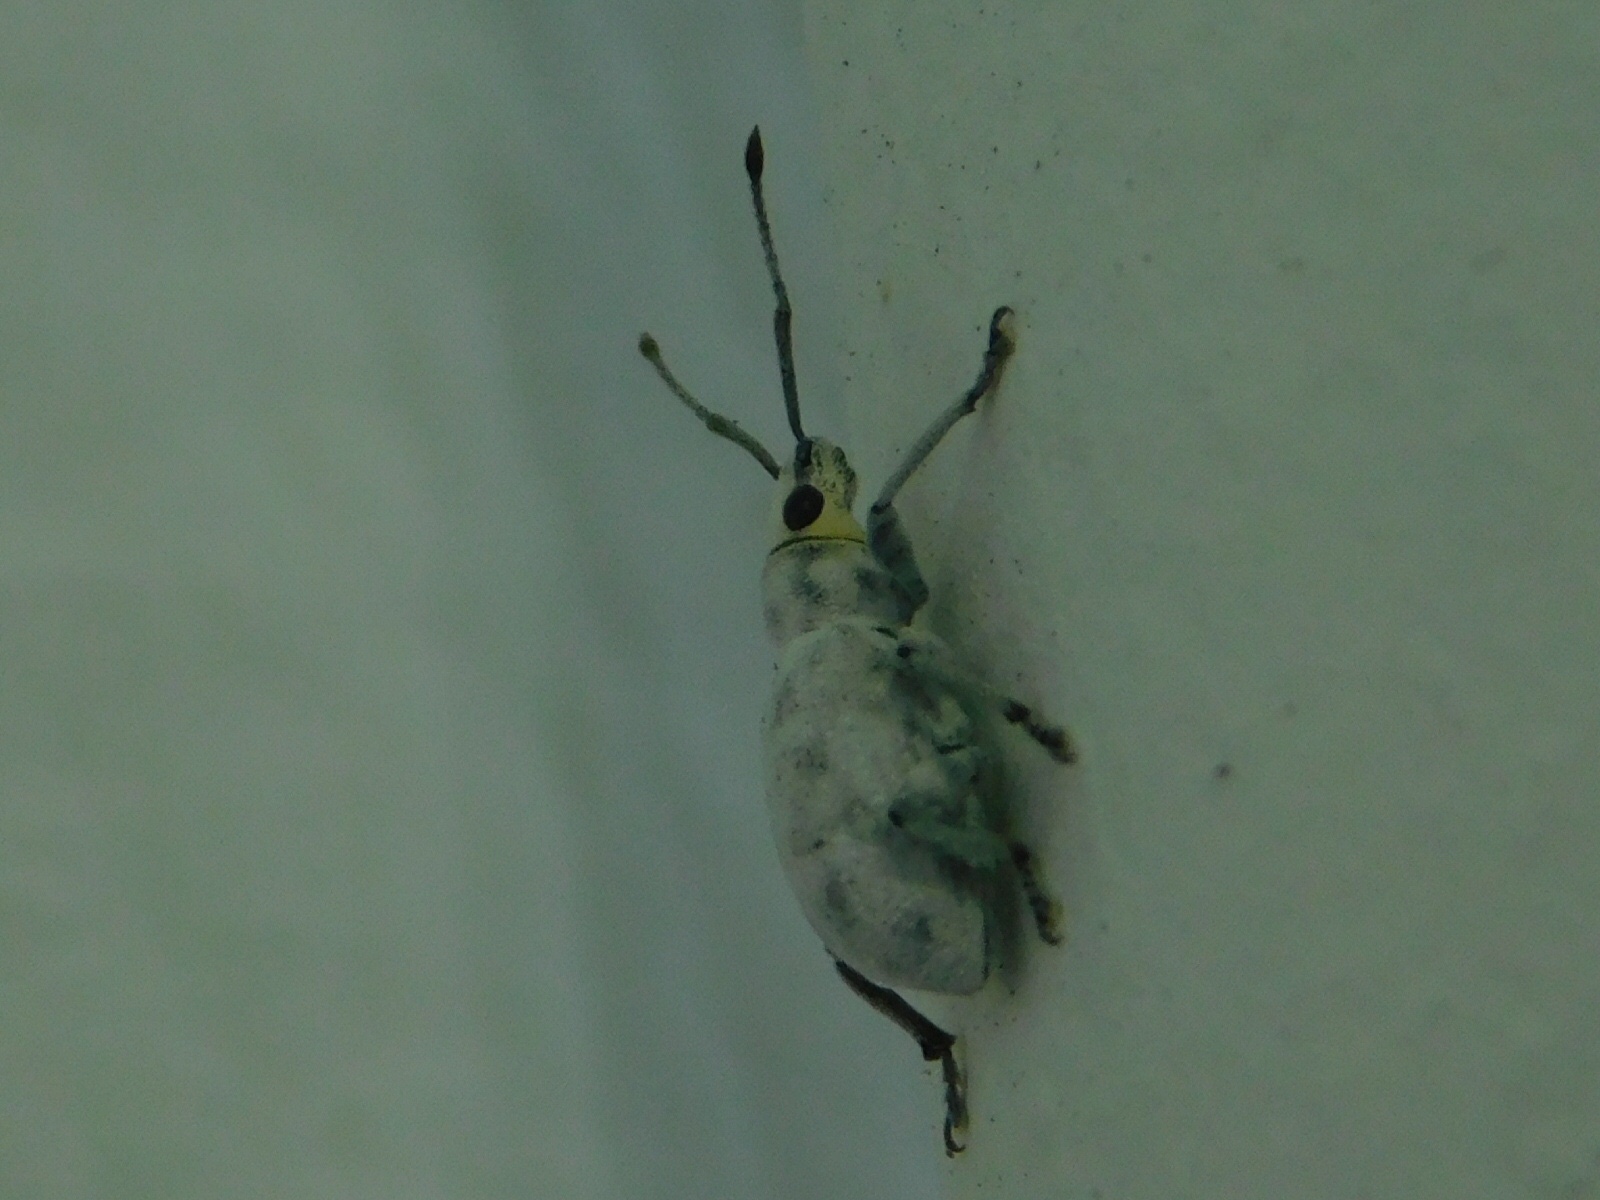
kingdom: Animalia
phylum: Arthropoda
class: Insecta
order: Coleoptera
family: Curculionidae
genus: Myllocerus
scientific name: Myllocerus undecimpustulatus
